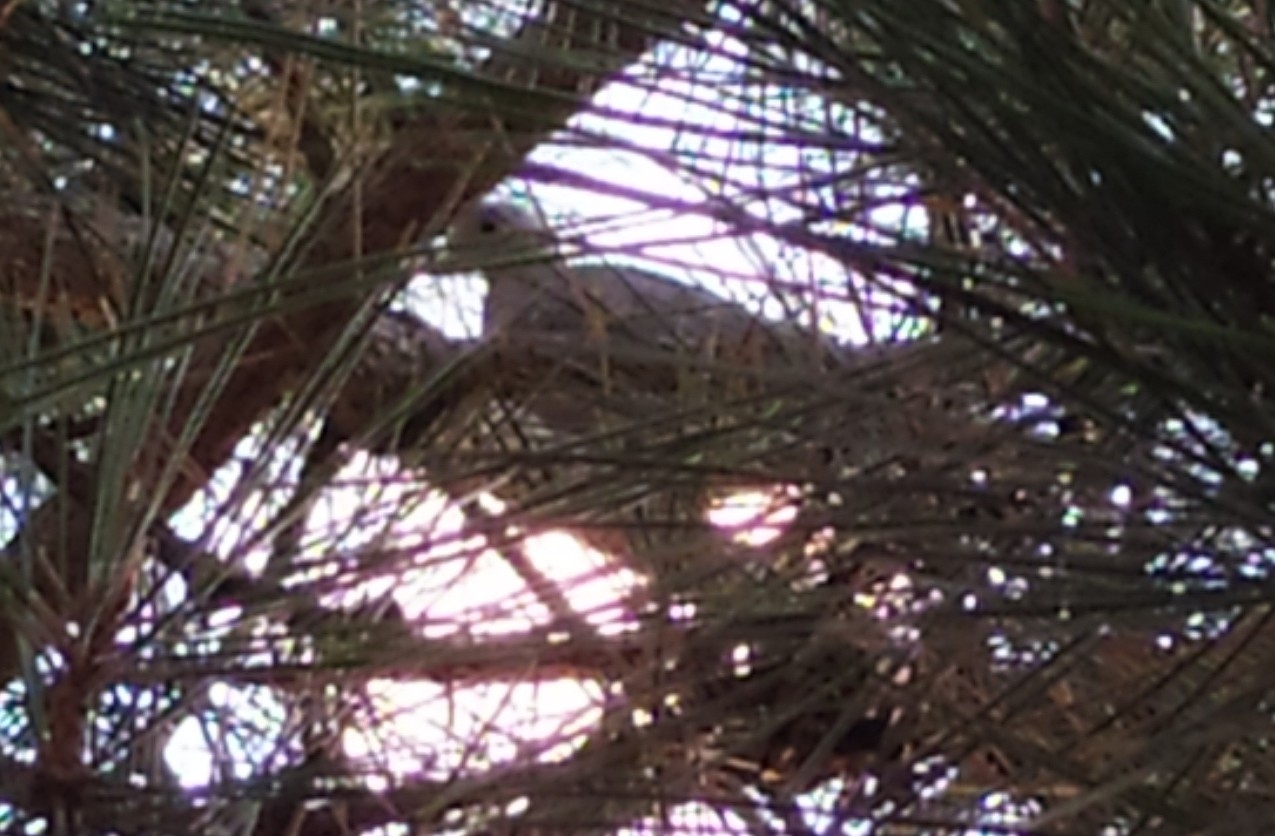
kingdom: Animalia
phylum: Chordata
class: Aves
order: Columbiformes
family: Columbidae
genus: Streptopelia
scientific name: Streptopelia decaocto
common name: Eurasian collared dove
